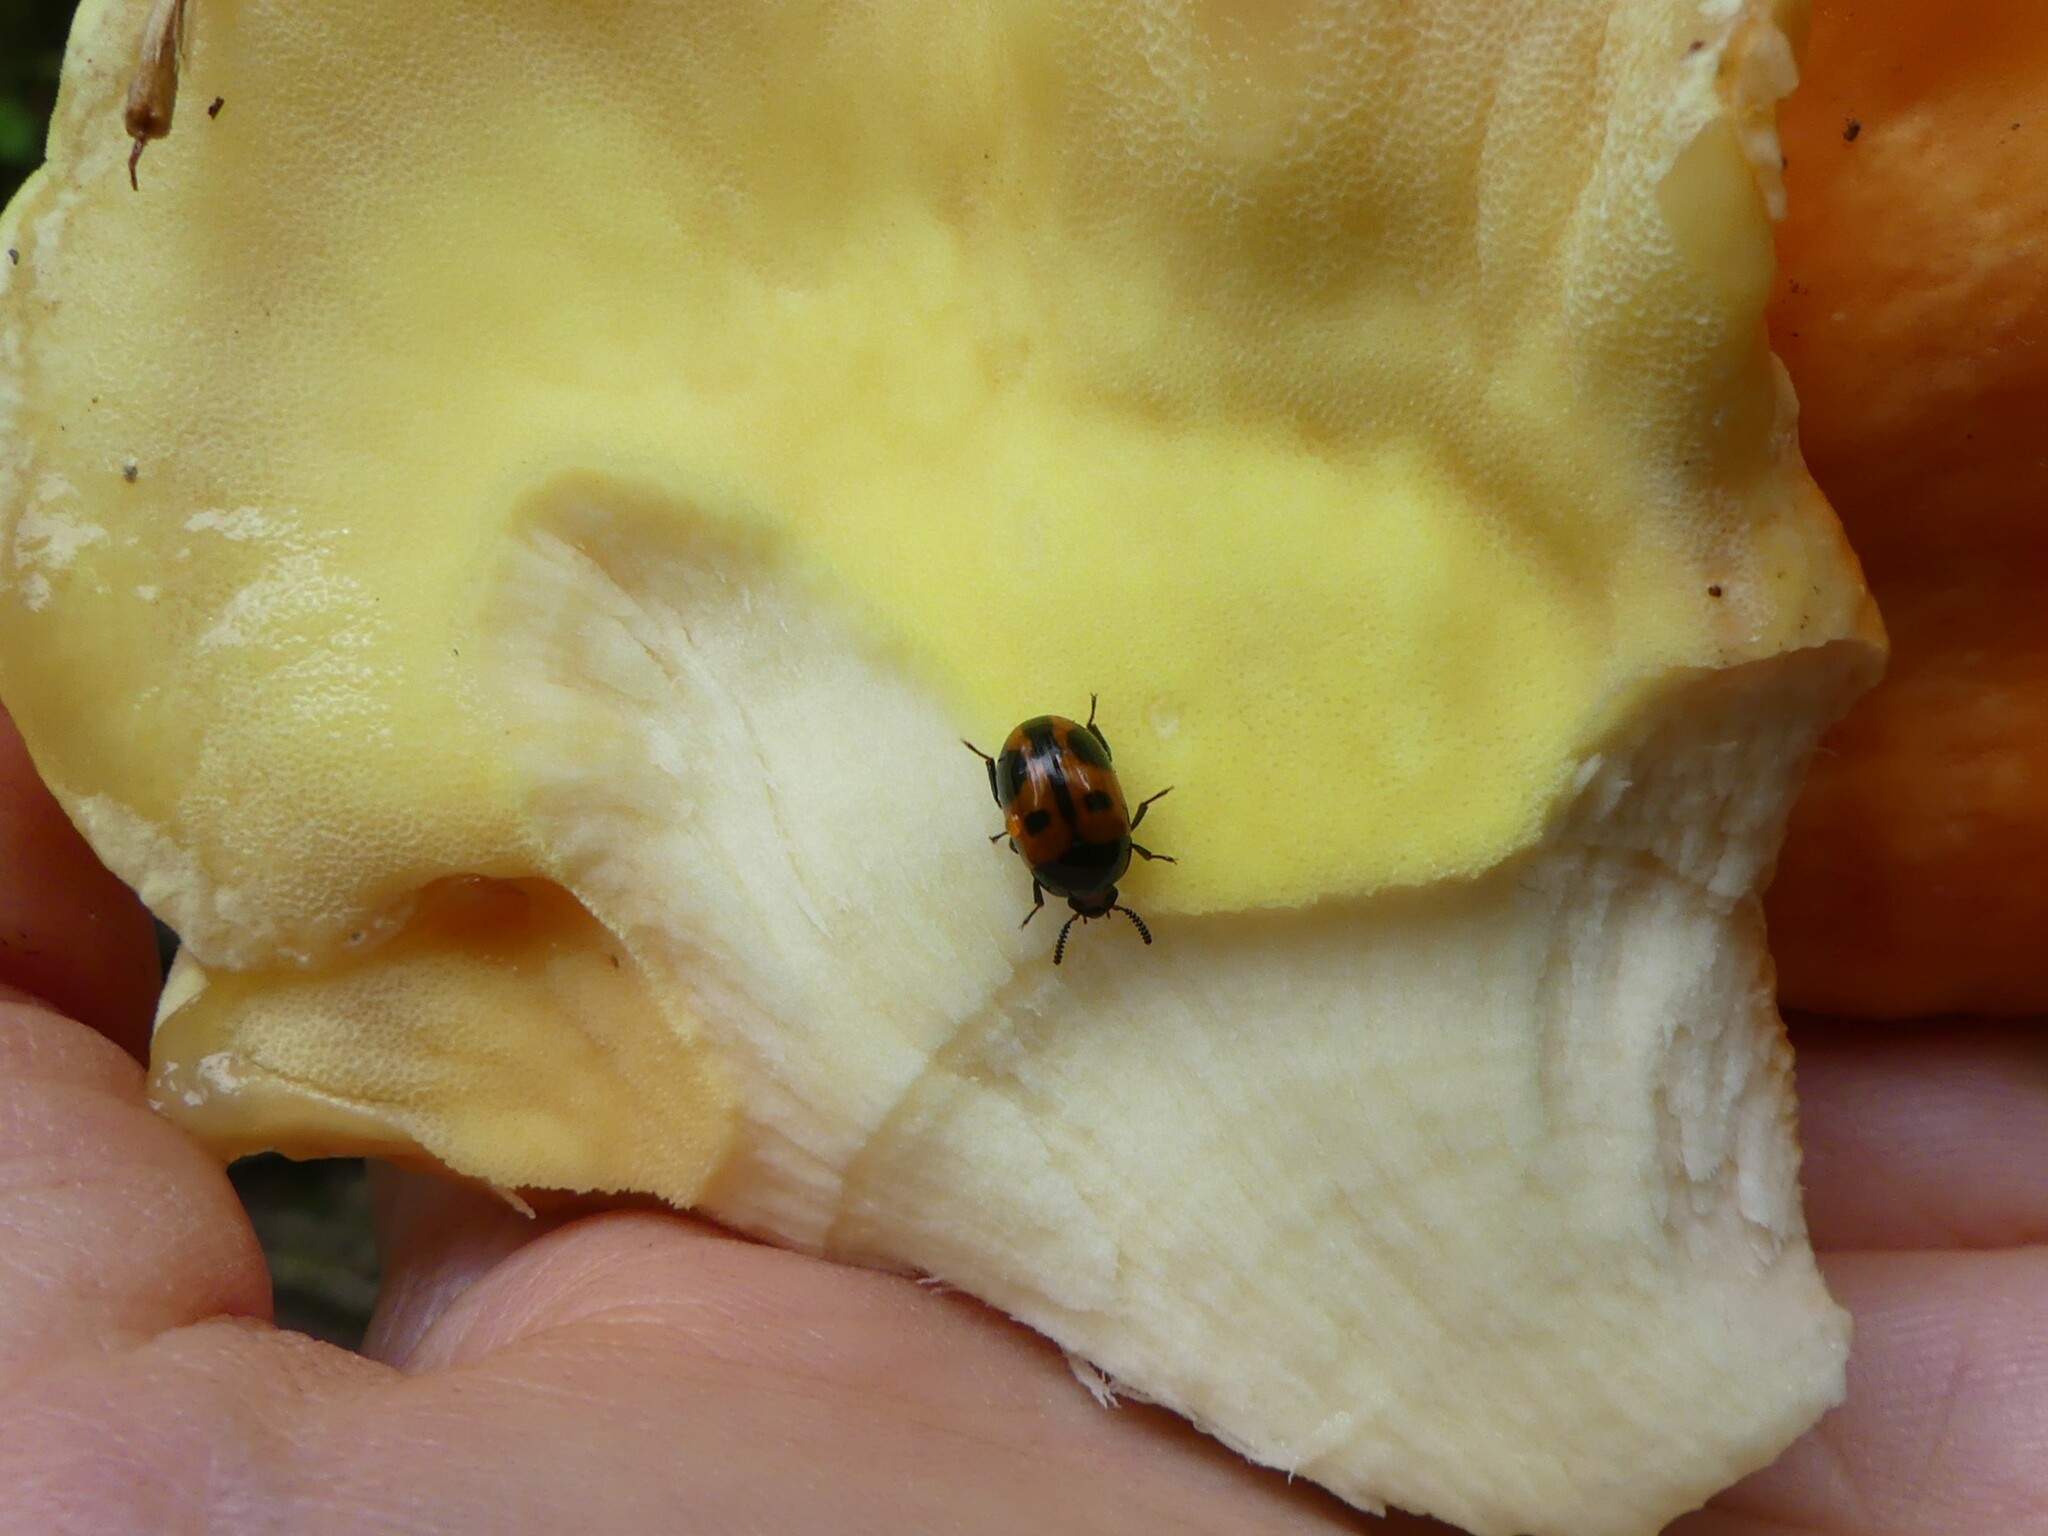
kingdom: Animalia
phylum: Arthropoda
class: Insecta
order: Coleoptera
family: Tenebrionidae
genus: Diaperis
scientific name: Diaperis maculata
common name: Darkling beetle
